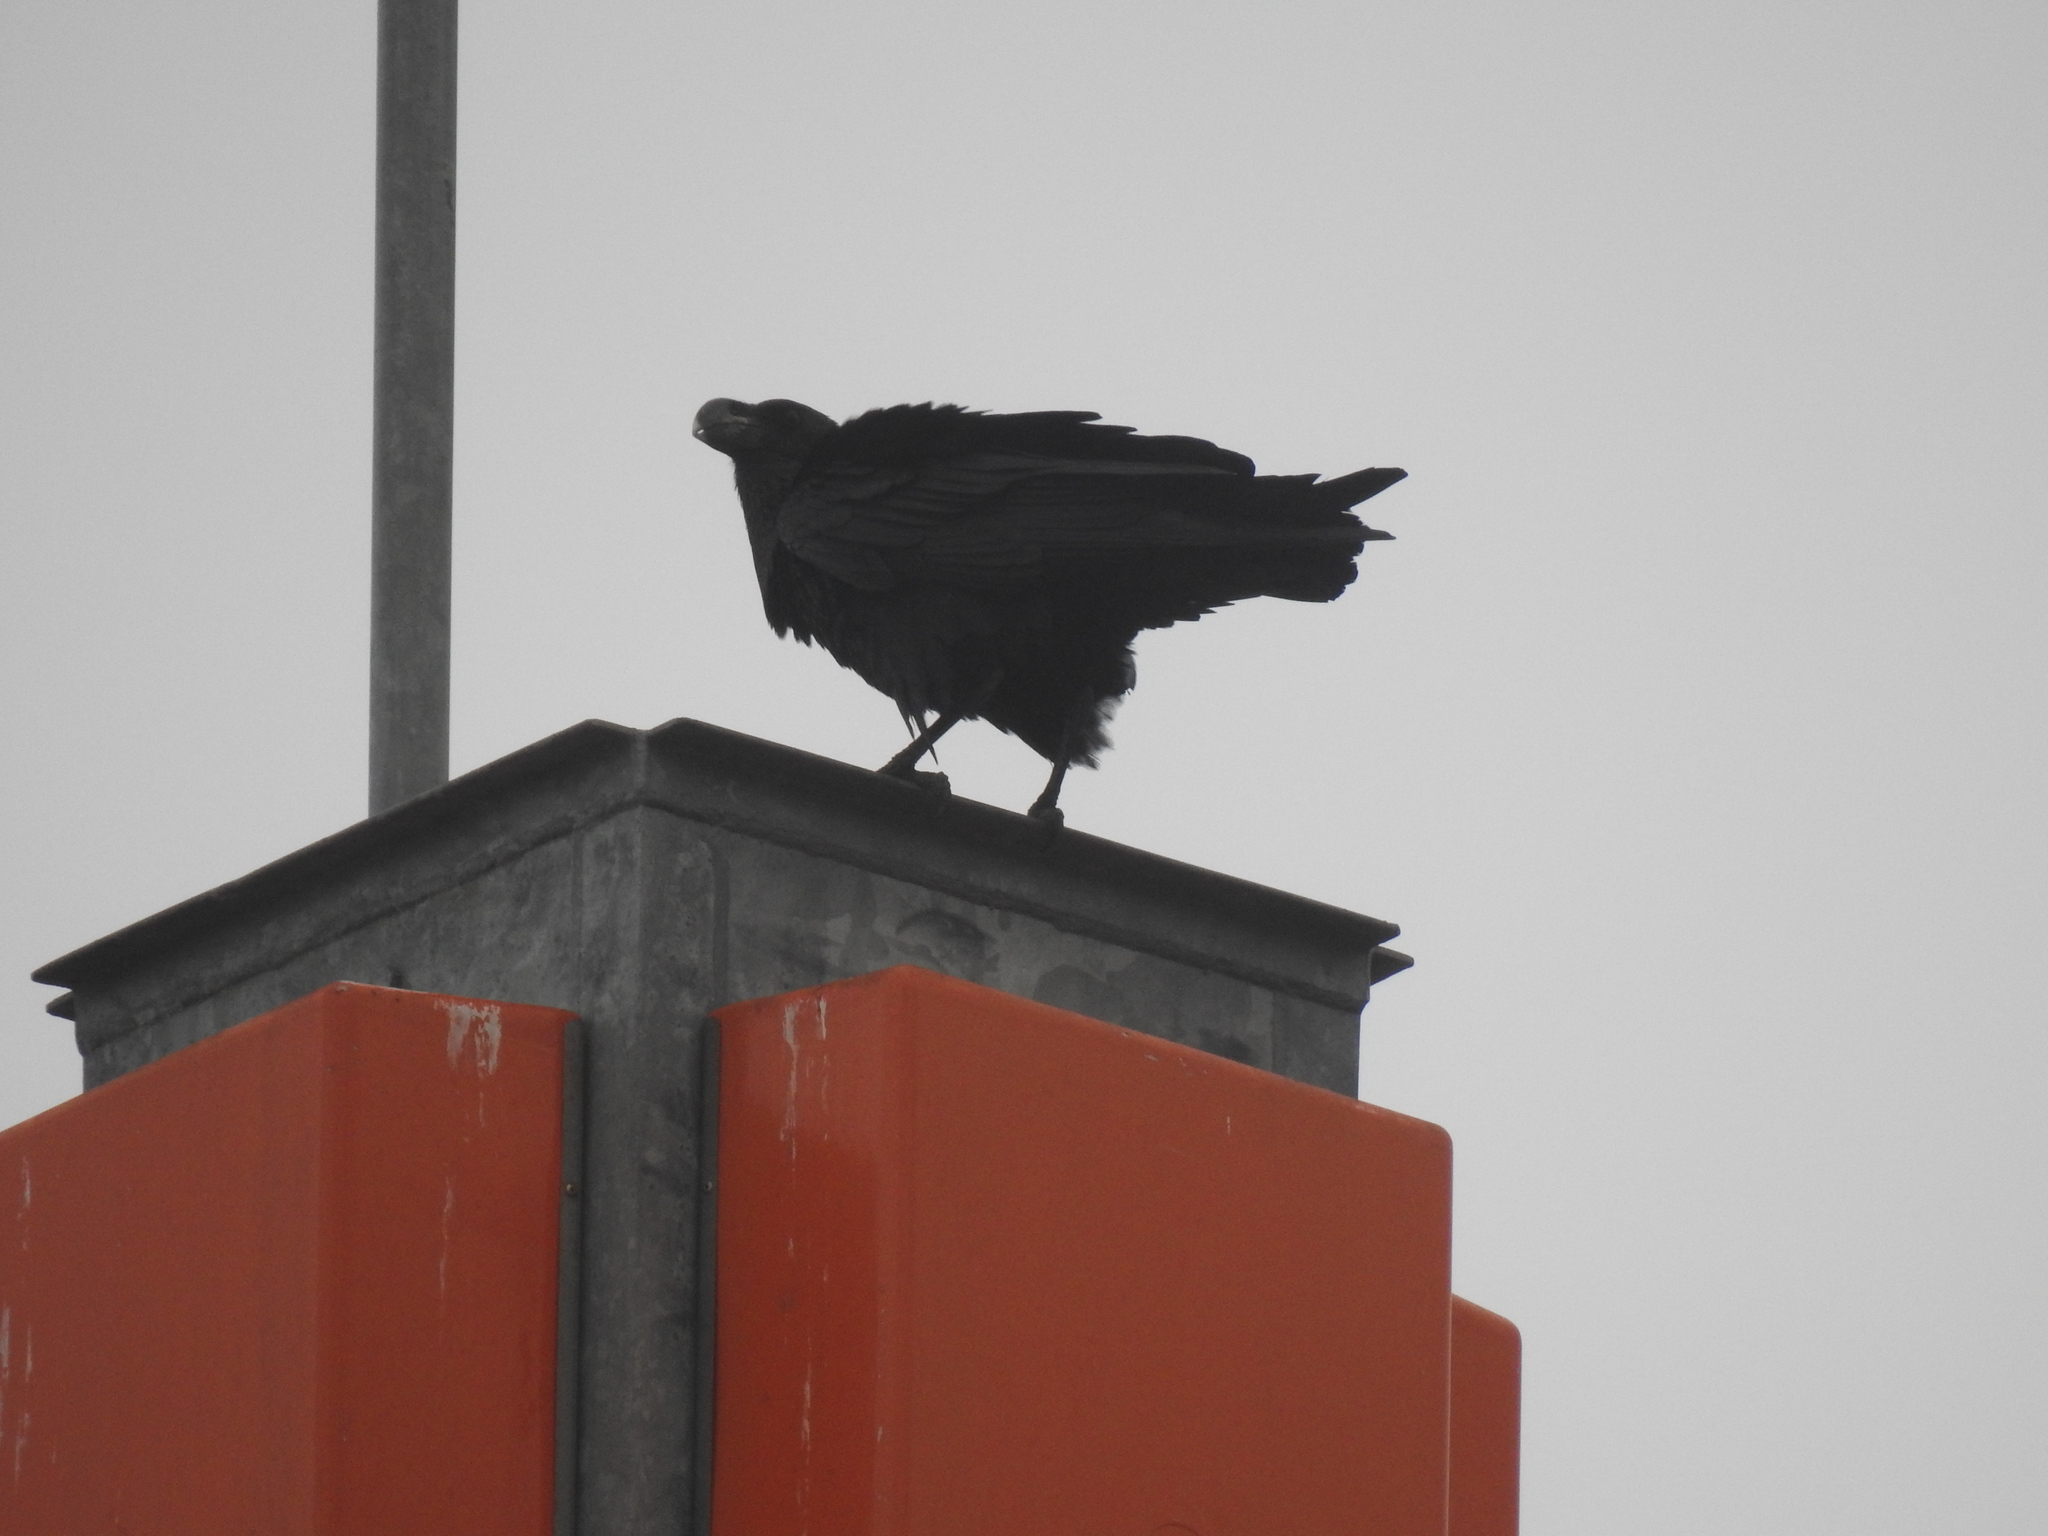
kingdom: Animalia
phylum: Chordata
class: Aves
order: Passeriformes
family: Corvidae
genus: Corvus
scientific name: Corvus albicollis
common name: White-necked raven
